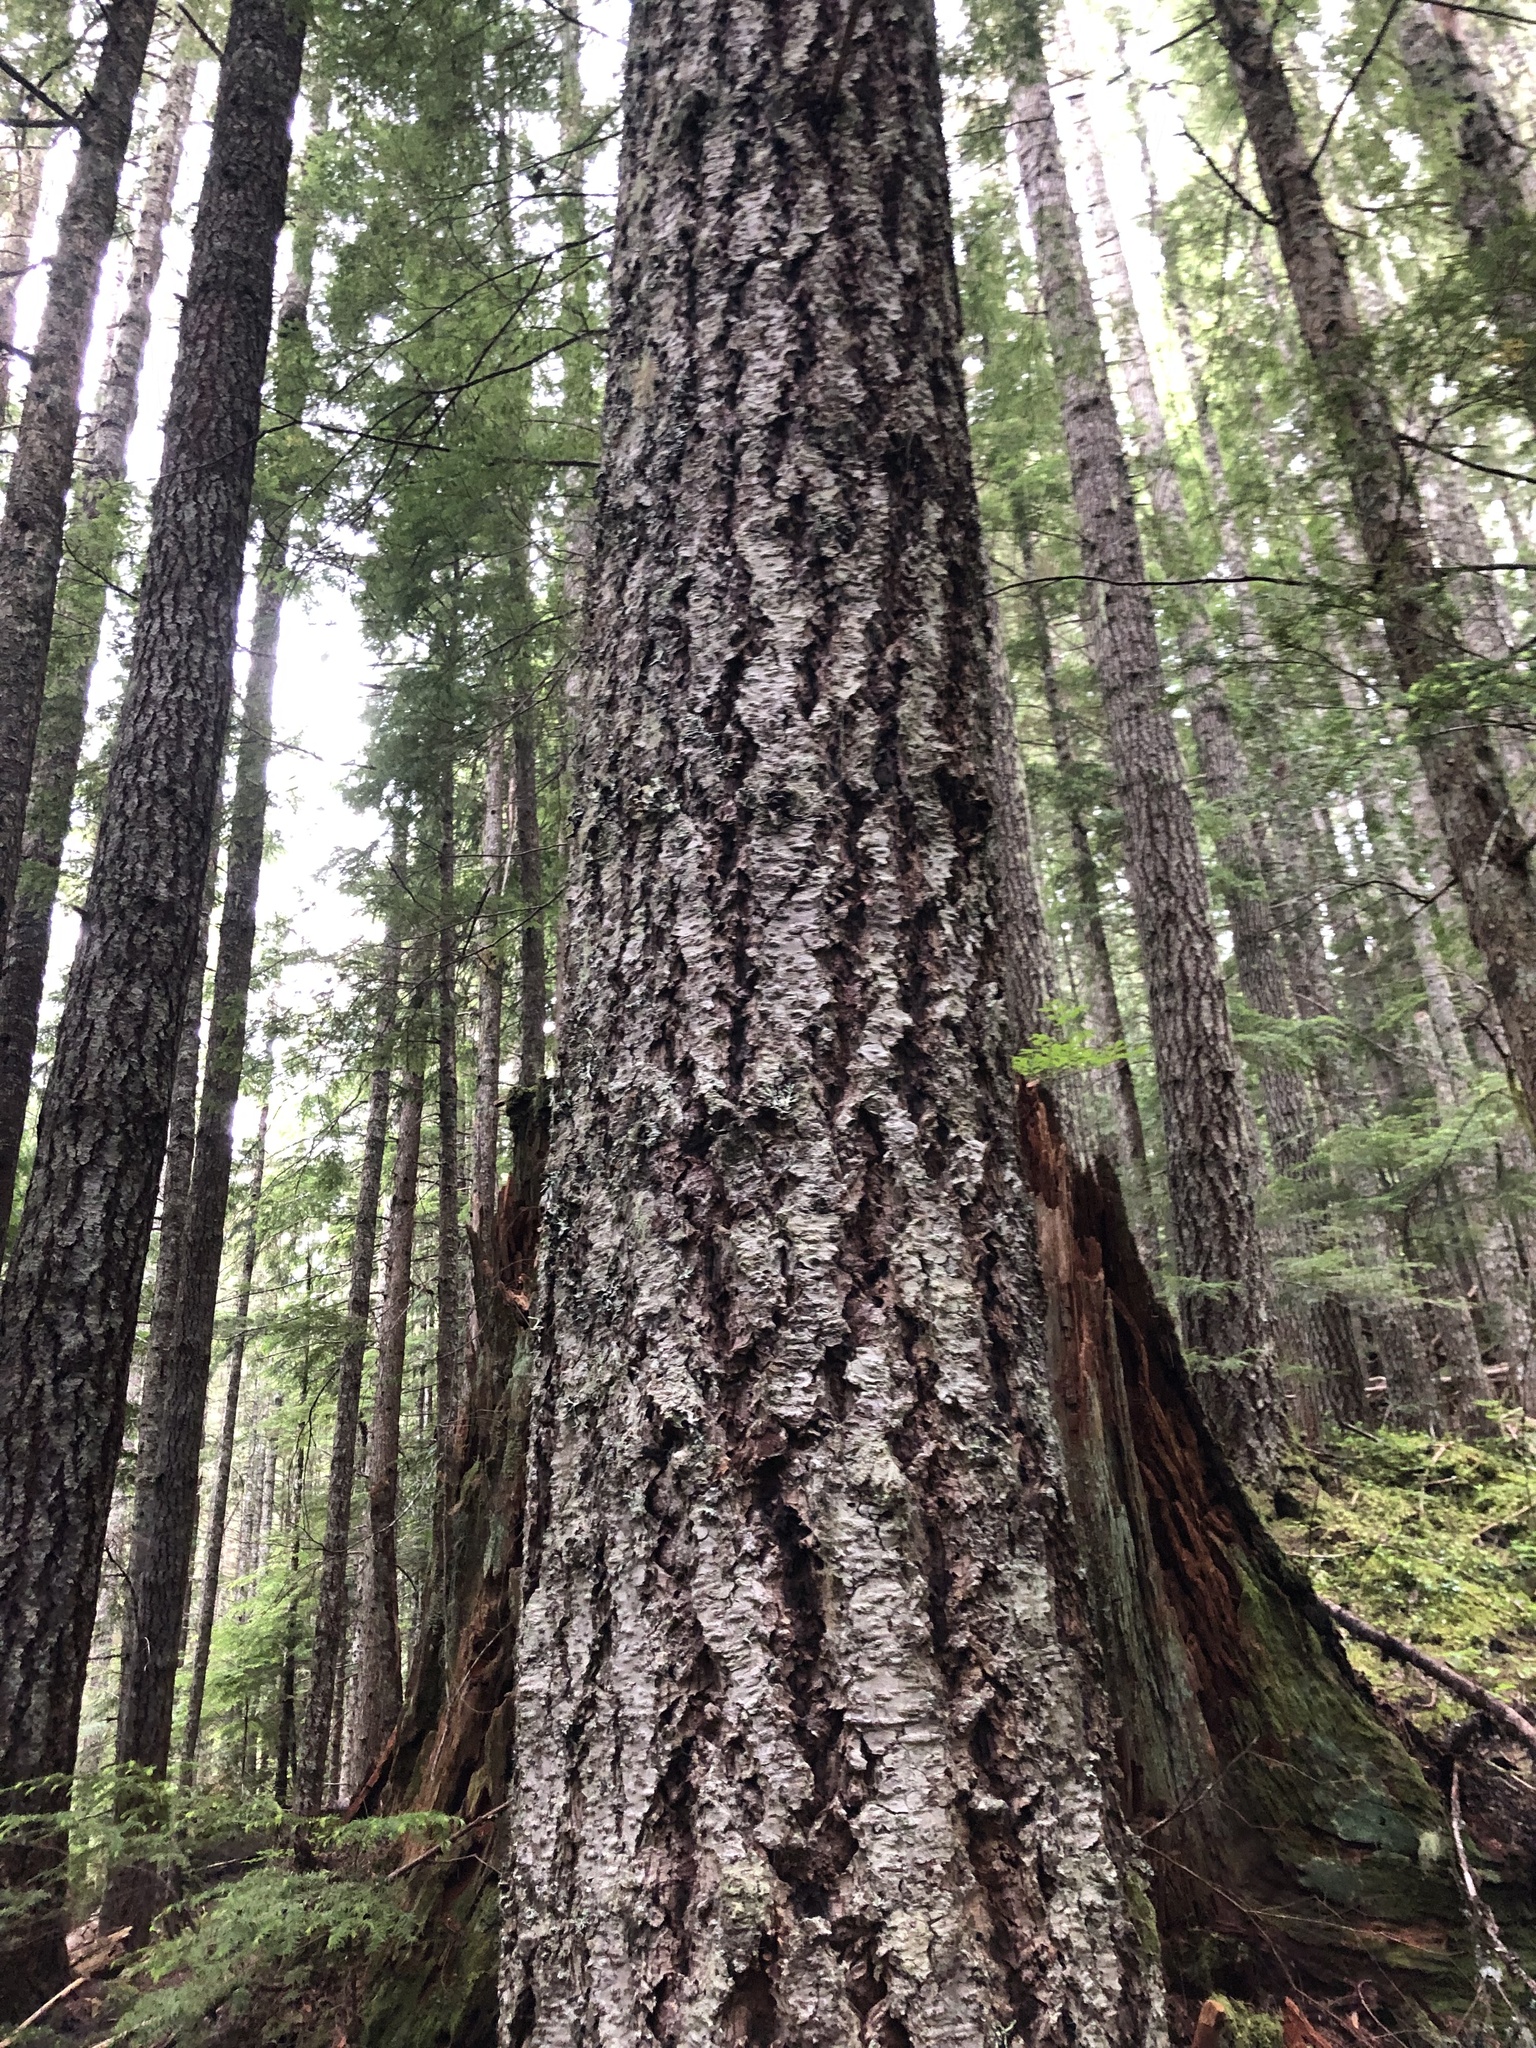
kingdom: Plantae
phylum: Tracheophyta
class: Pinopsida
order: Pinales
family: Pinaceae
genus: Pseudotsuga
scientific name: Pseudotsuga menziesii
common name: Douglas fir
